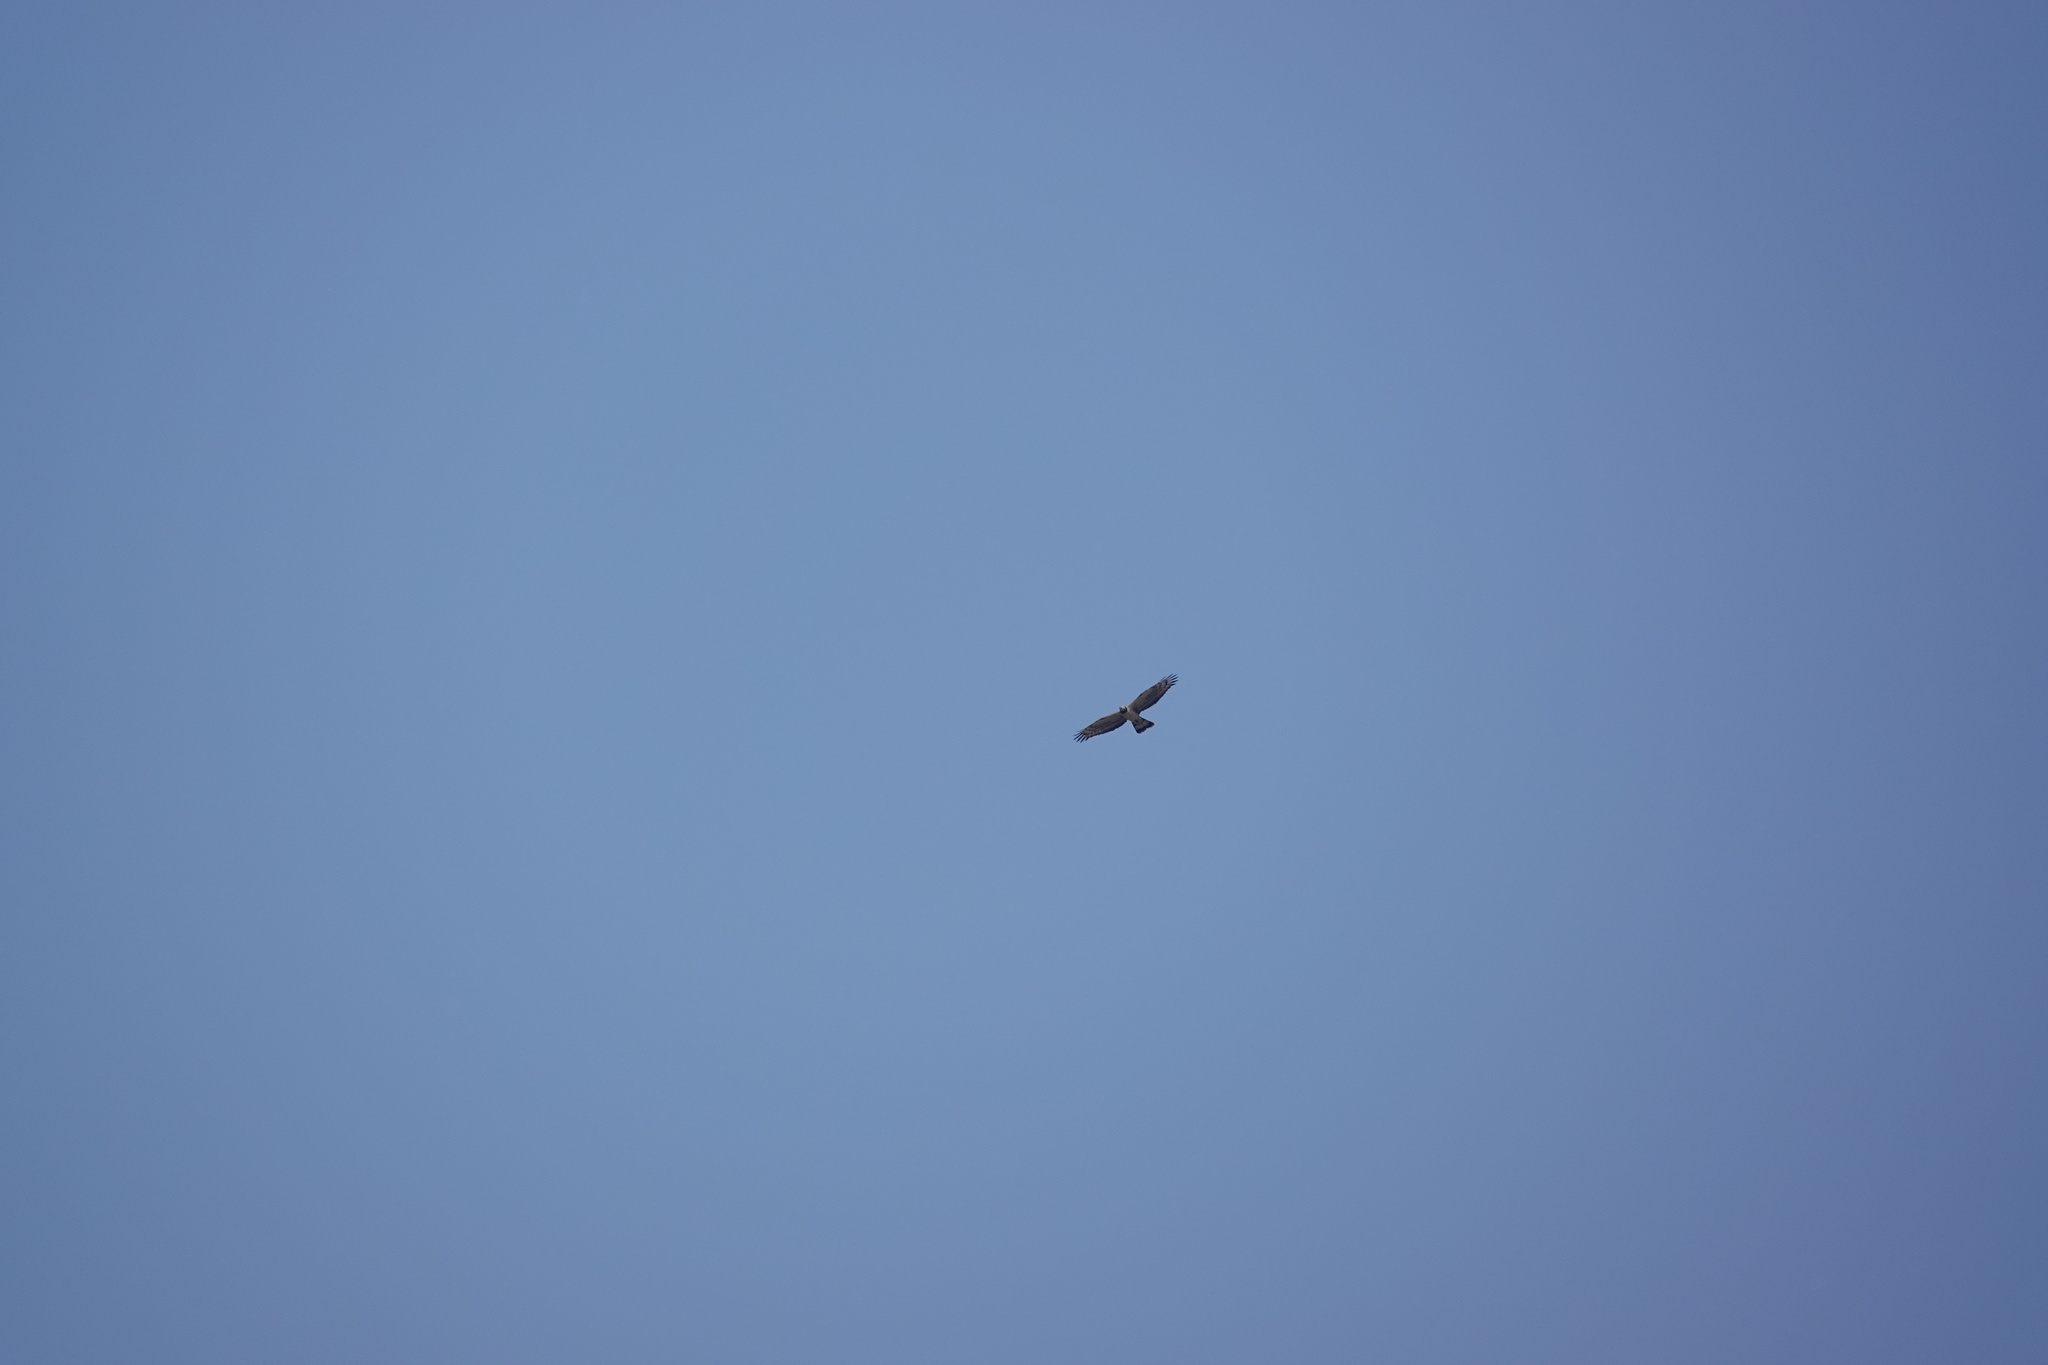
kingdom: Animalia
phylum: Chordata
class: Aves
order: Accipitriformes
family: Accipitridae
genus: Pernis
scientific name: Pernis ptilorhynchus
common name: Crested honey buzzard
